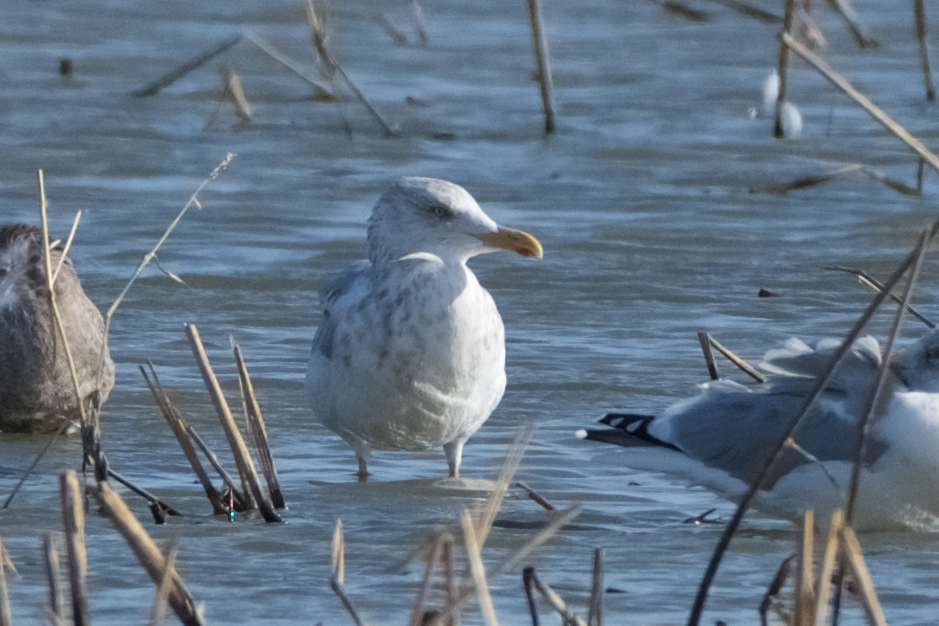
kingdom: Animalia
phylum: Chordata
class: Aves
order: Charadriiformes
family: Laridae
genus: Larus
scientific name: Larus argentatus
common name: Herring gull
